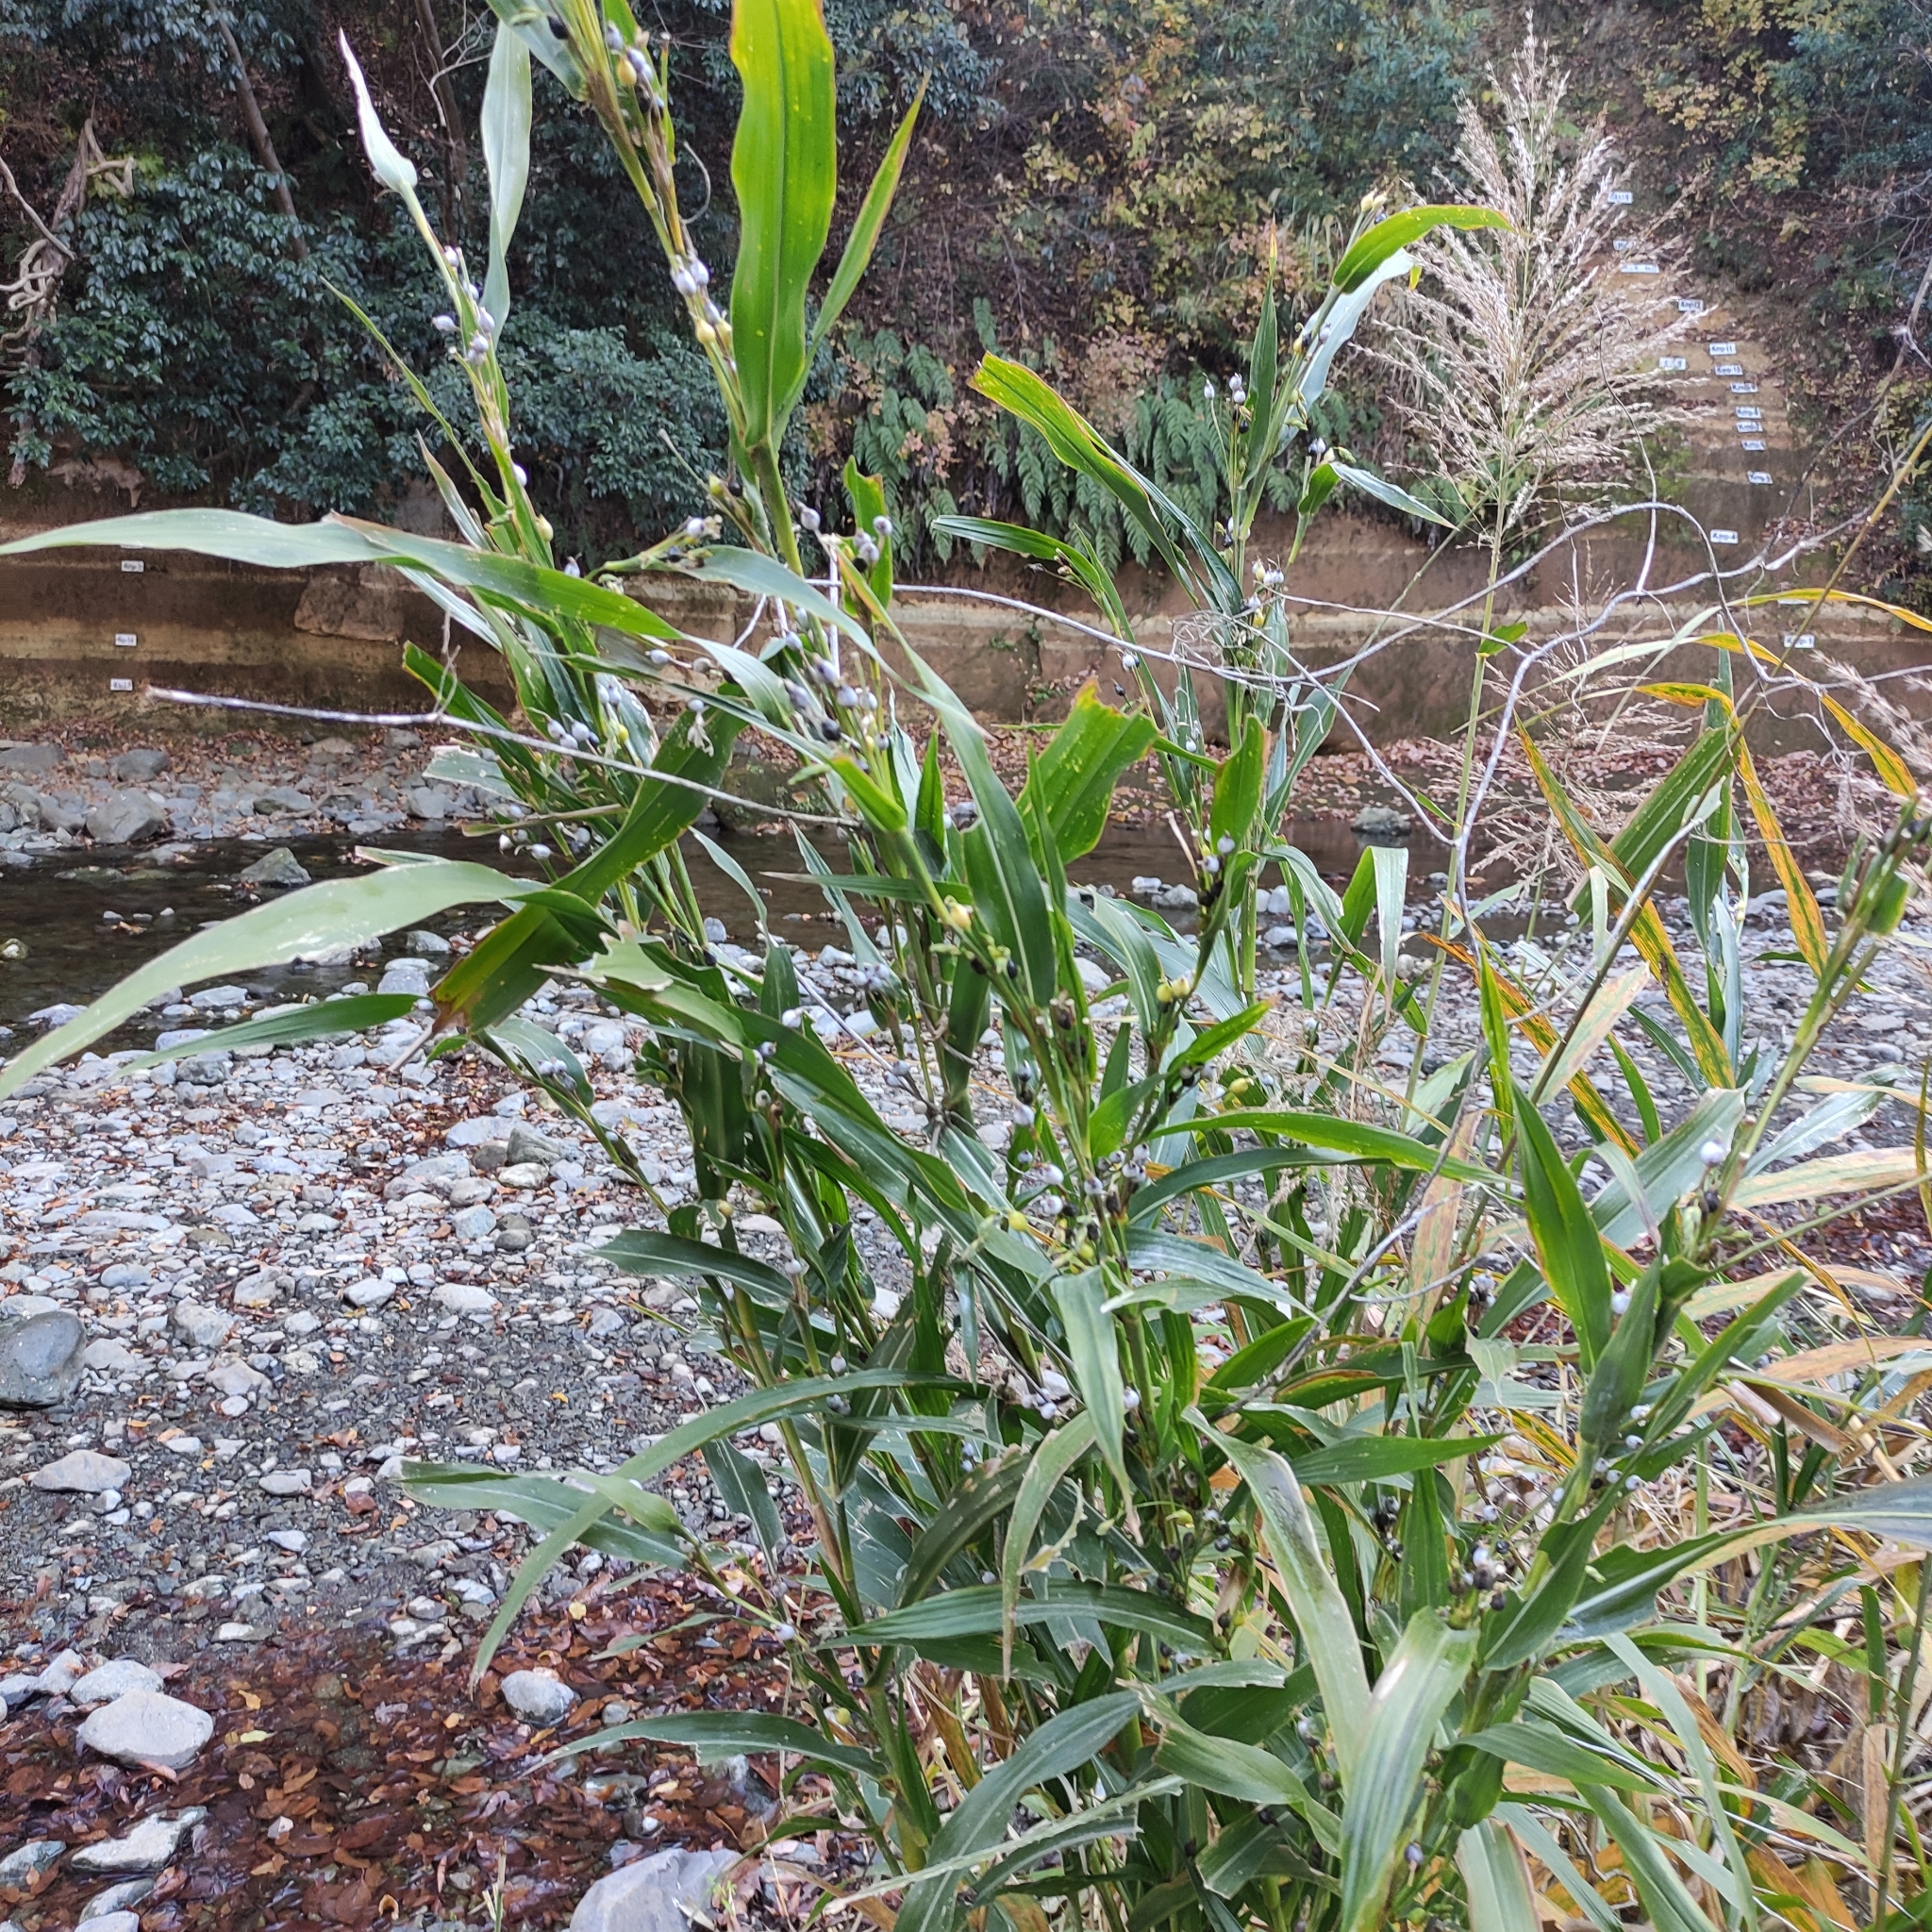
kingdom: Plantae
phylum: Tracheophyta
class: Liliopsida
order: Poales
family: Poaceae
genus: Coix
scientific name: Coix lacryma-jobi
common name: Job's tears
